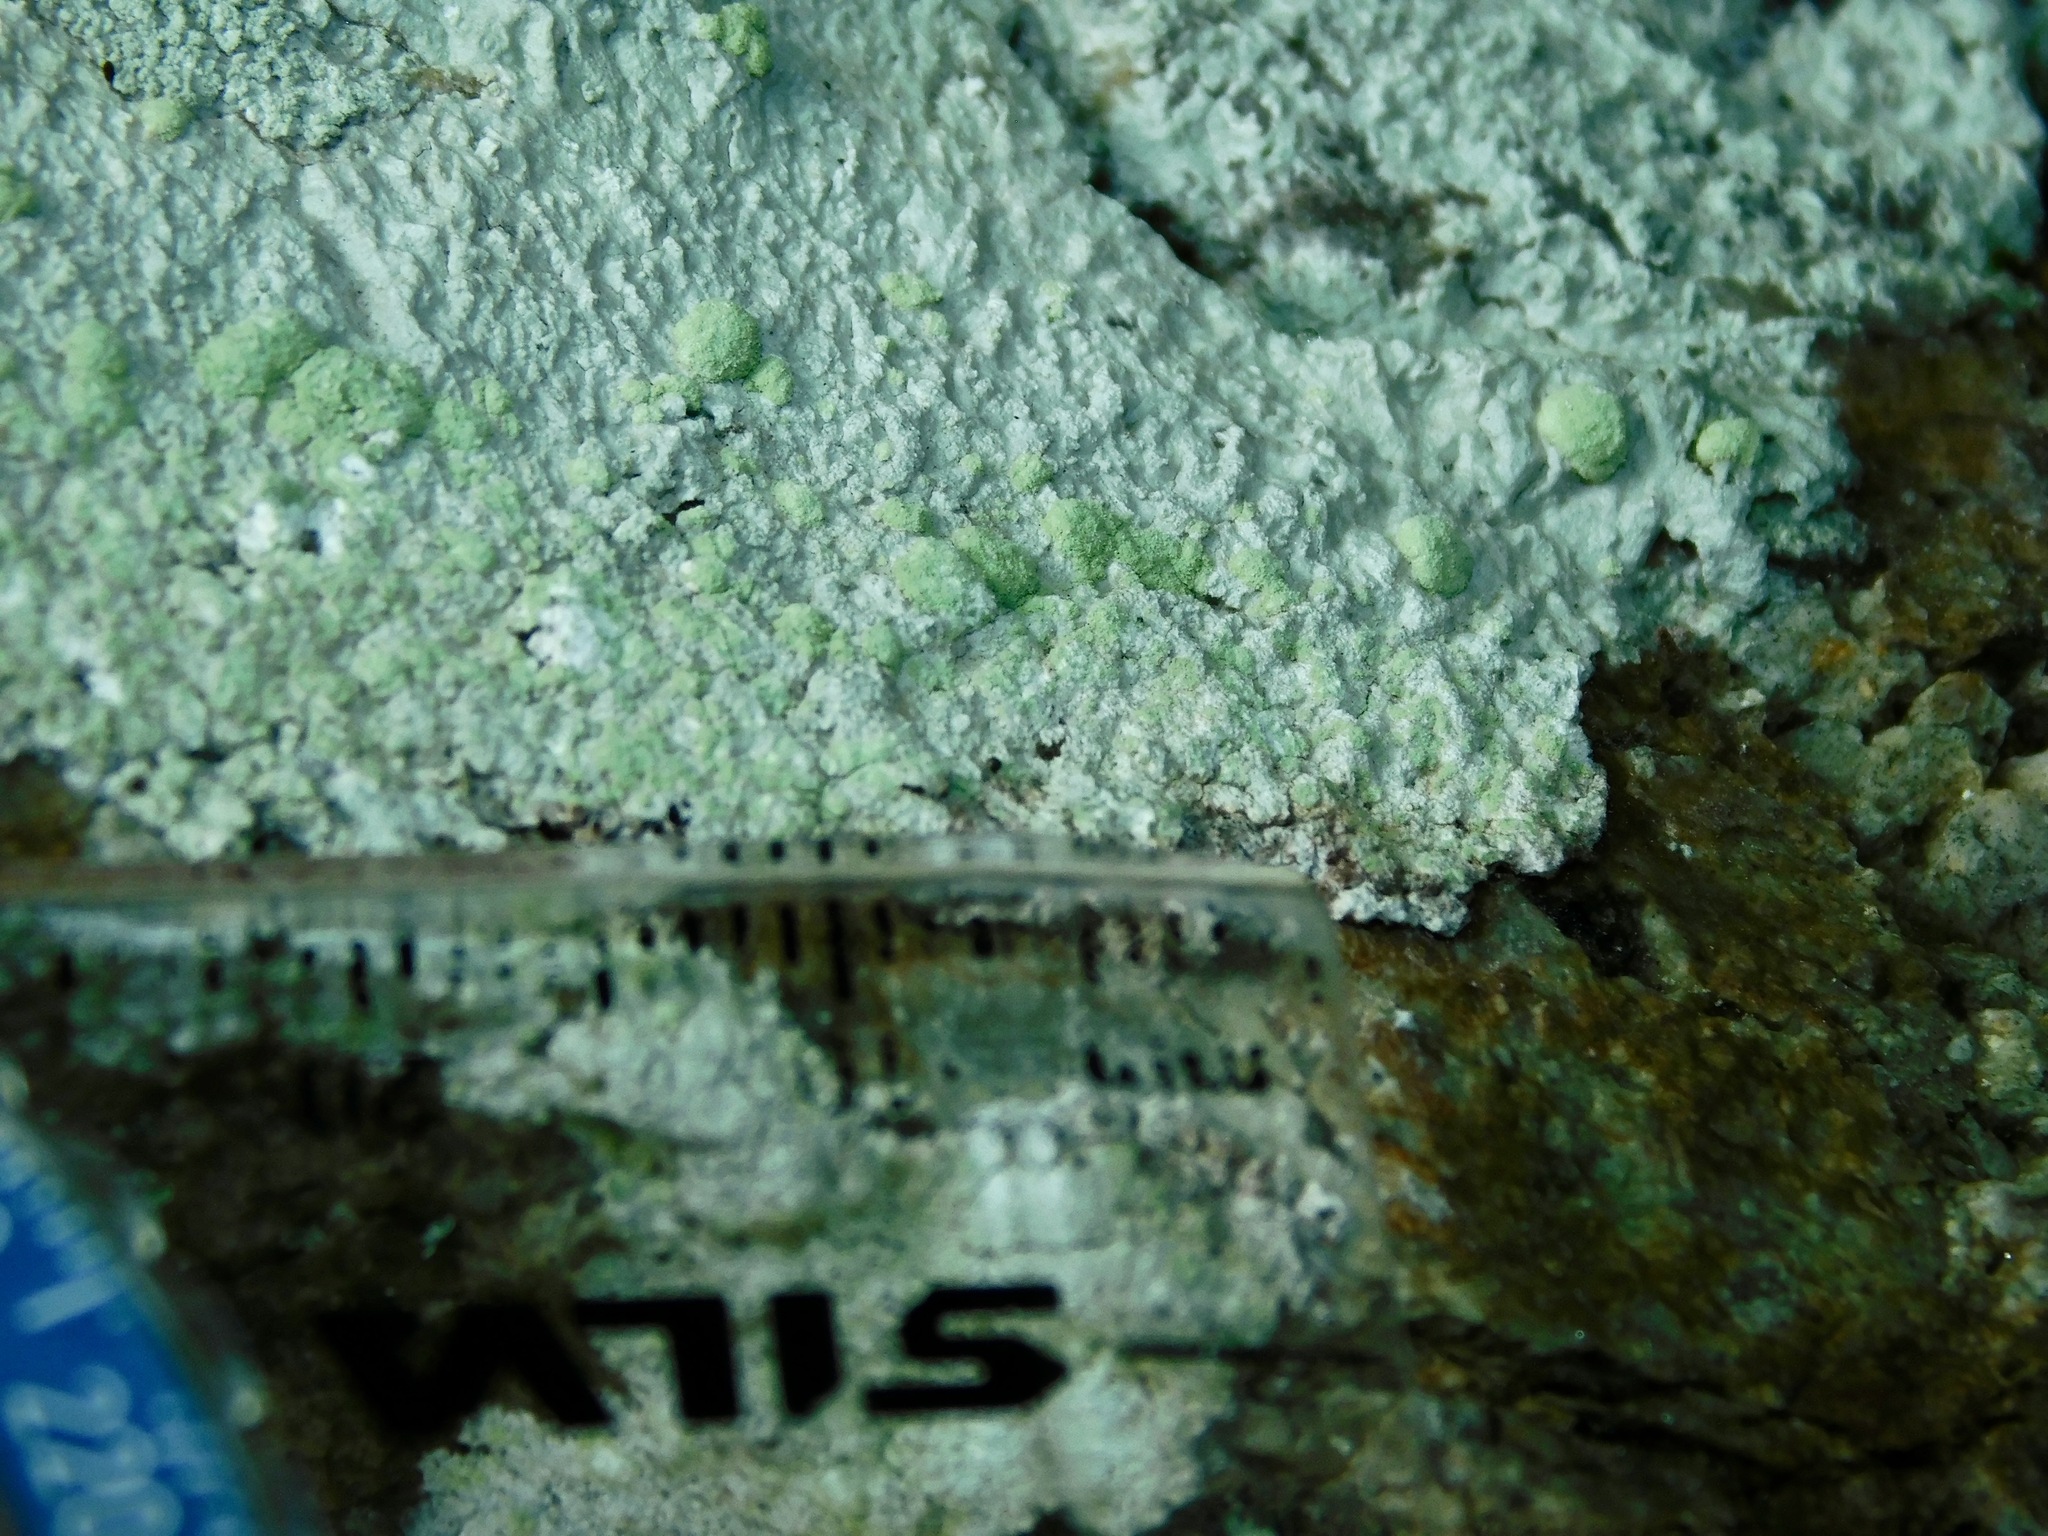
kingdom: Fungi
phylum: Ascomycota
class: Lecanoromycetes
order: Ostropales
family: Phlyctidaceae
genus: Phlyctis
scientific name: Phlyctis petraea
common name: Eggshell rock blaze
